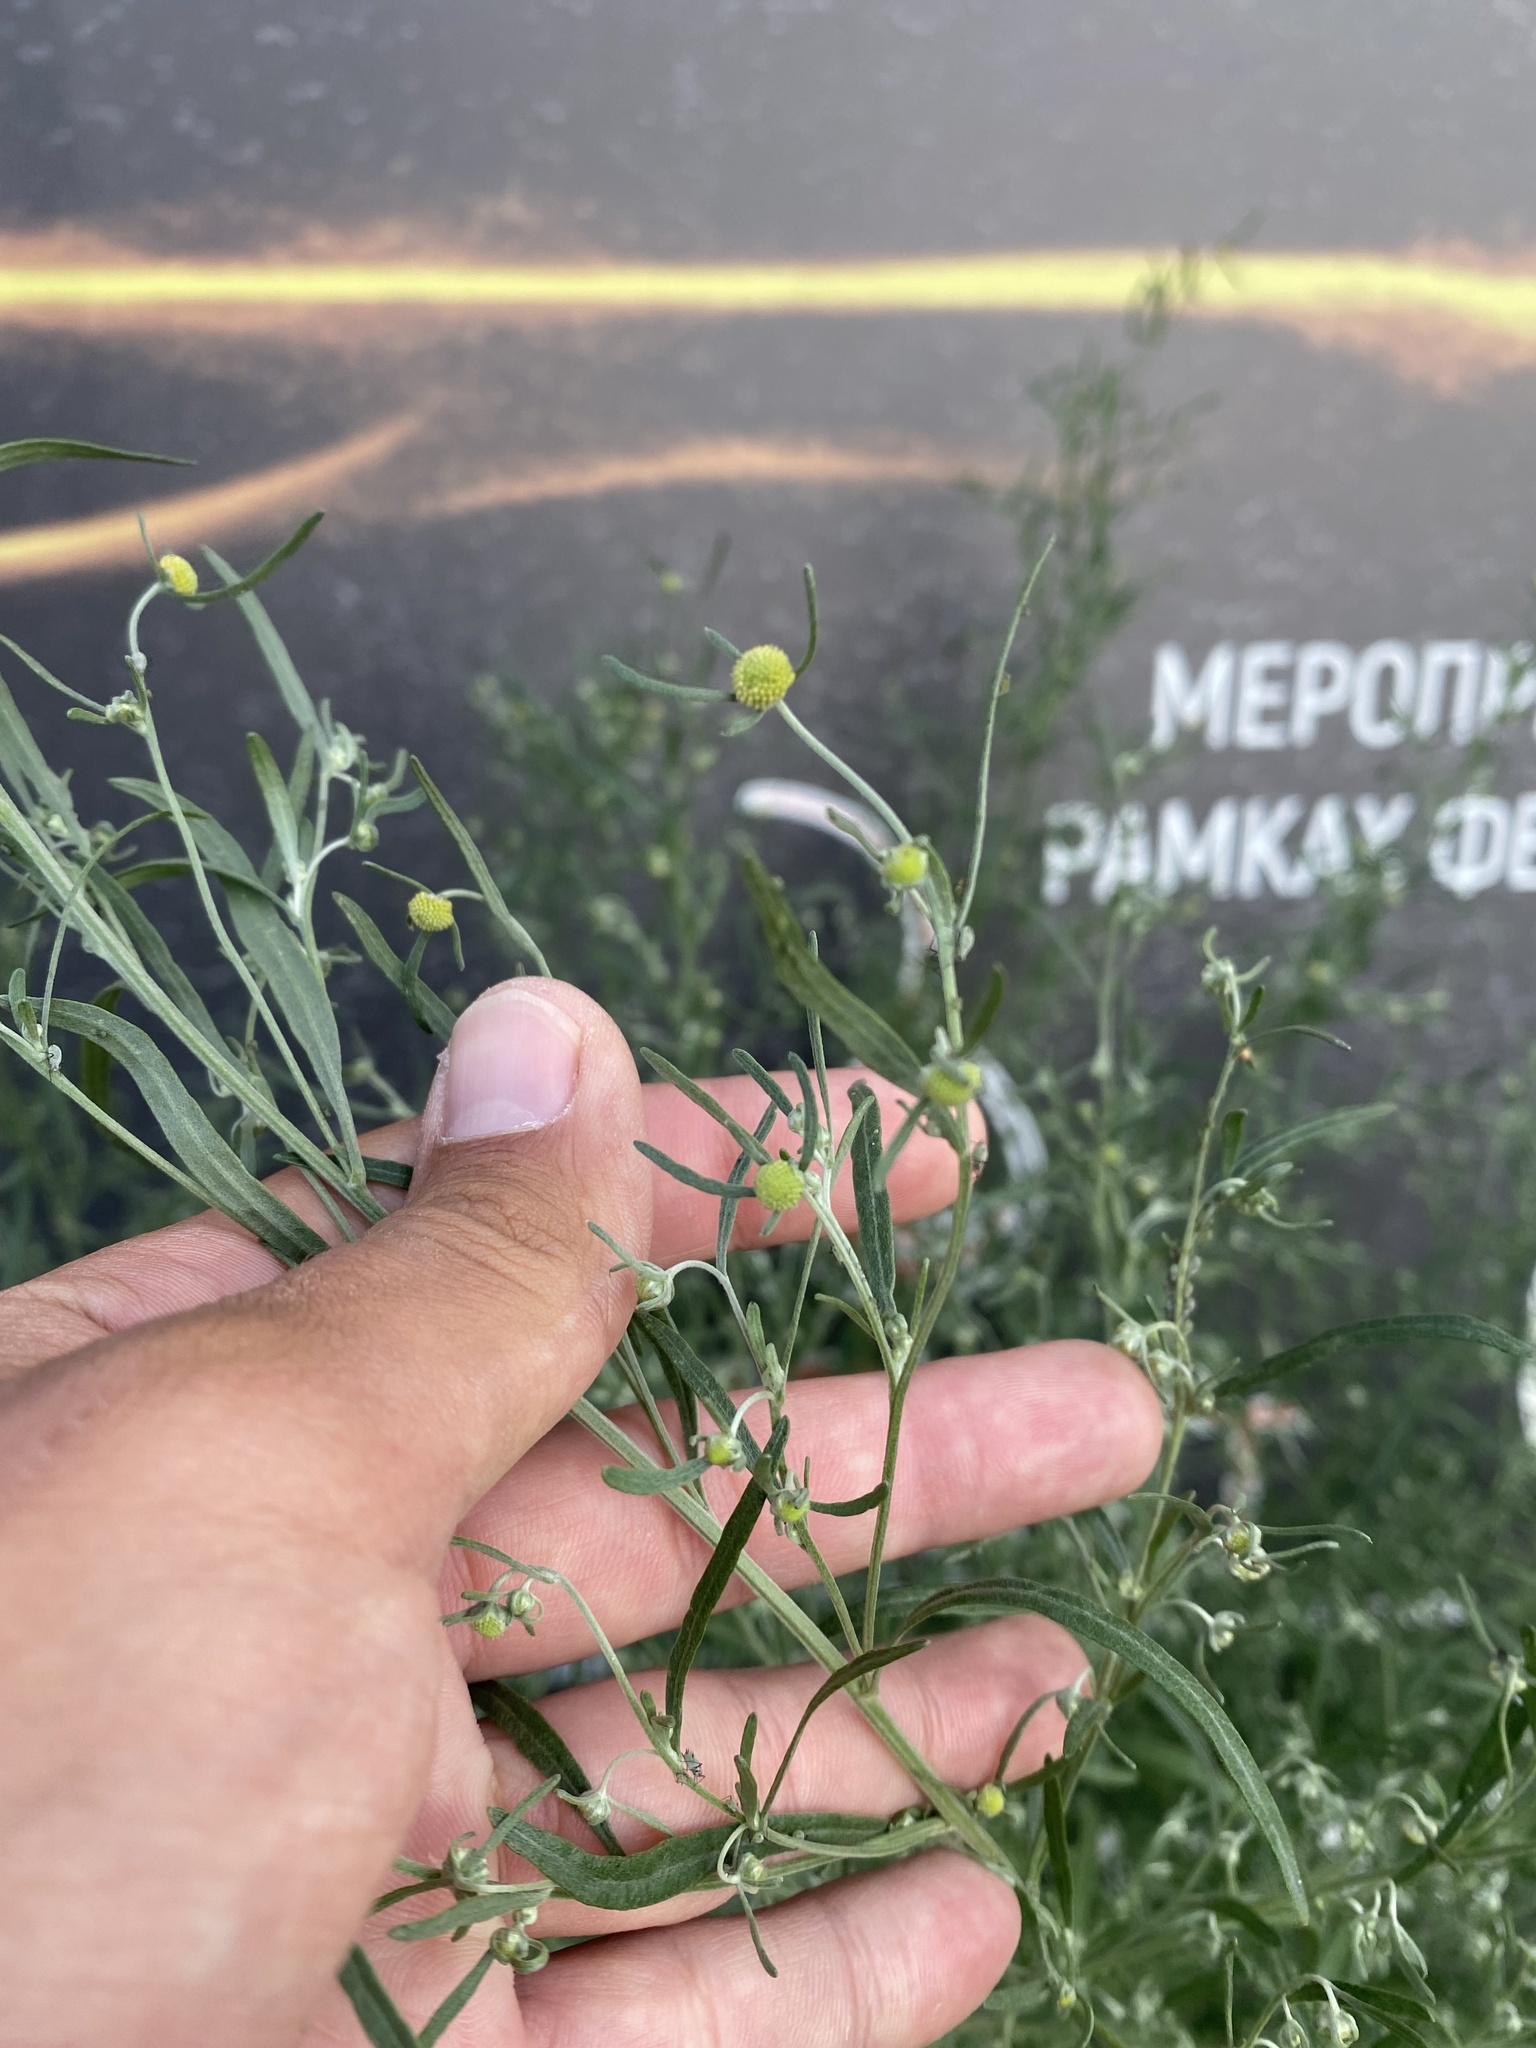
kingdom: Plantae
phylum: Tracheophyta
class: Magnoliopsida
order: Asterales
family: Asteraceae
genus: Artemisia
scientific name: Artemisia sieversiana
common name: Sieversian wormwood
